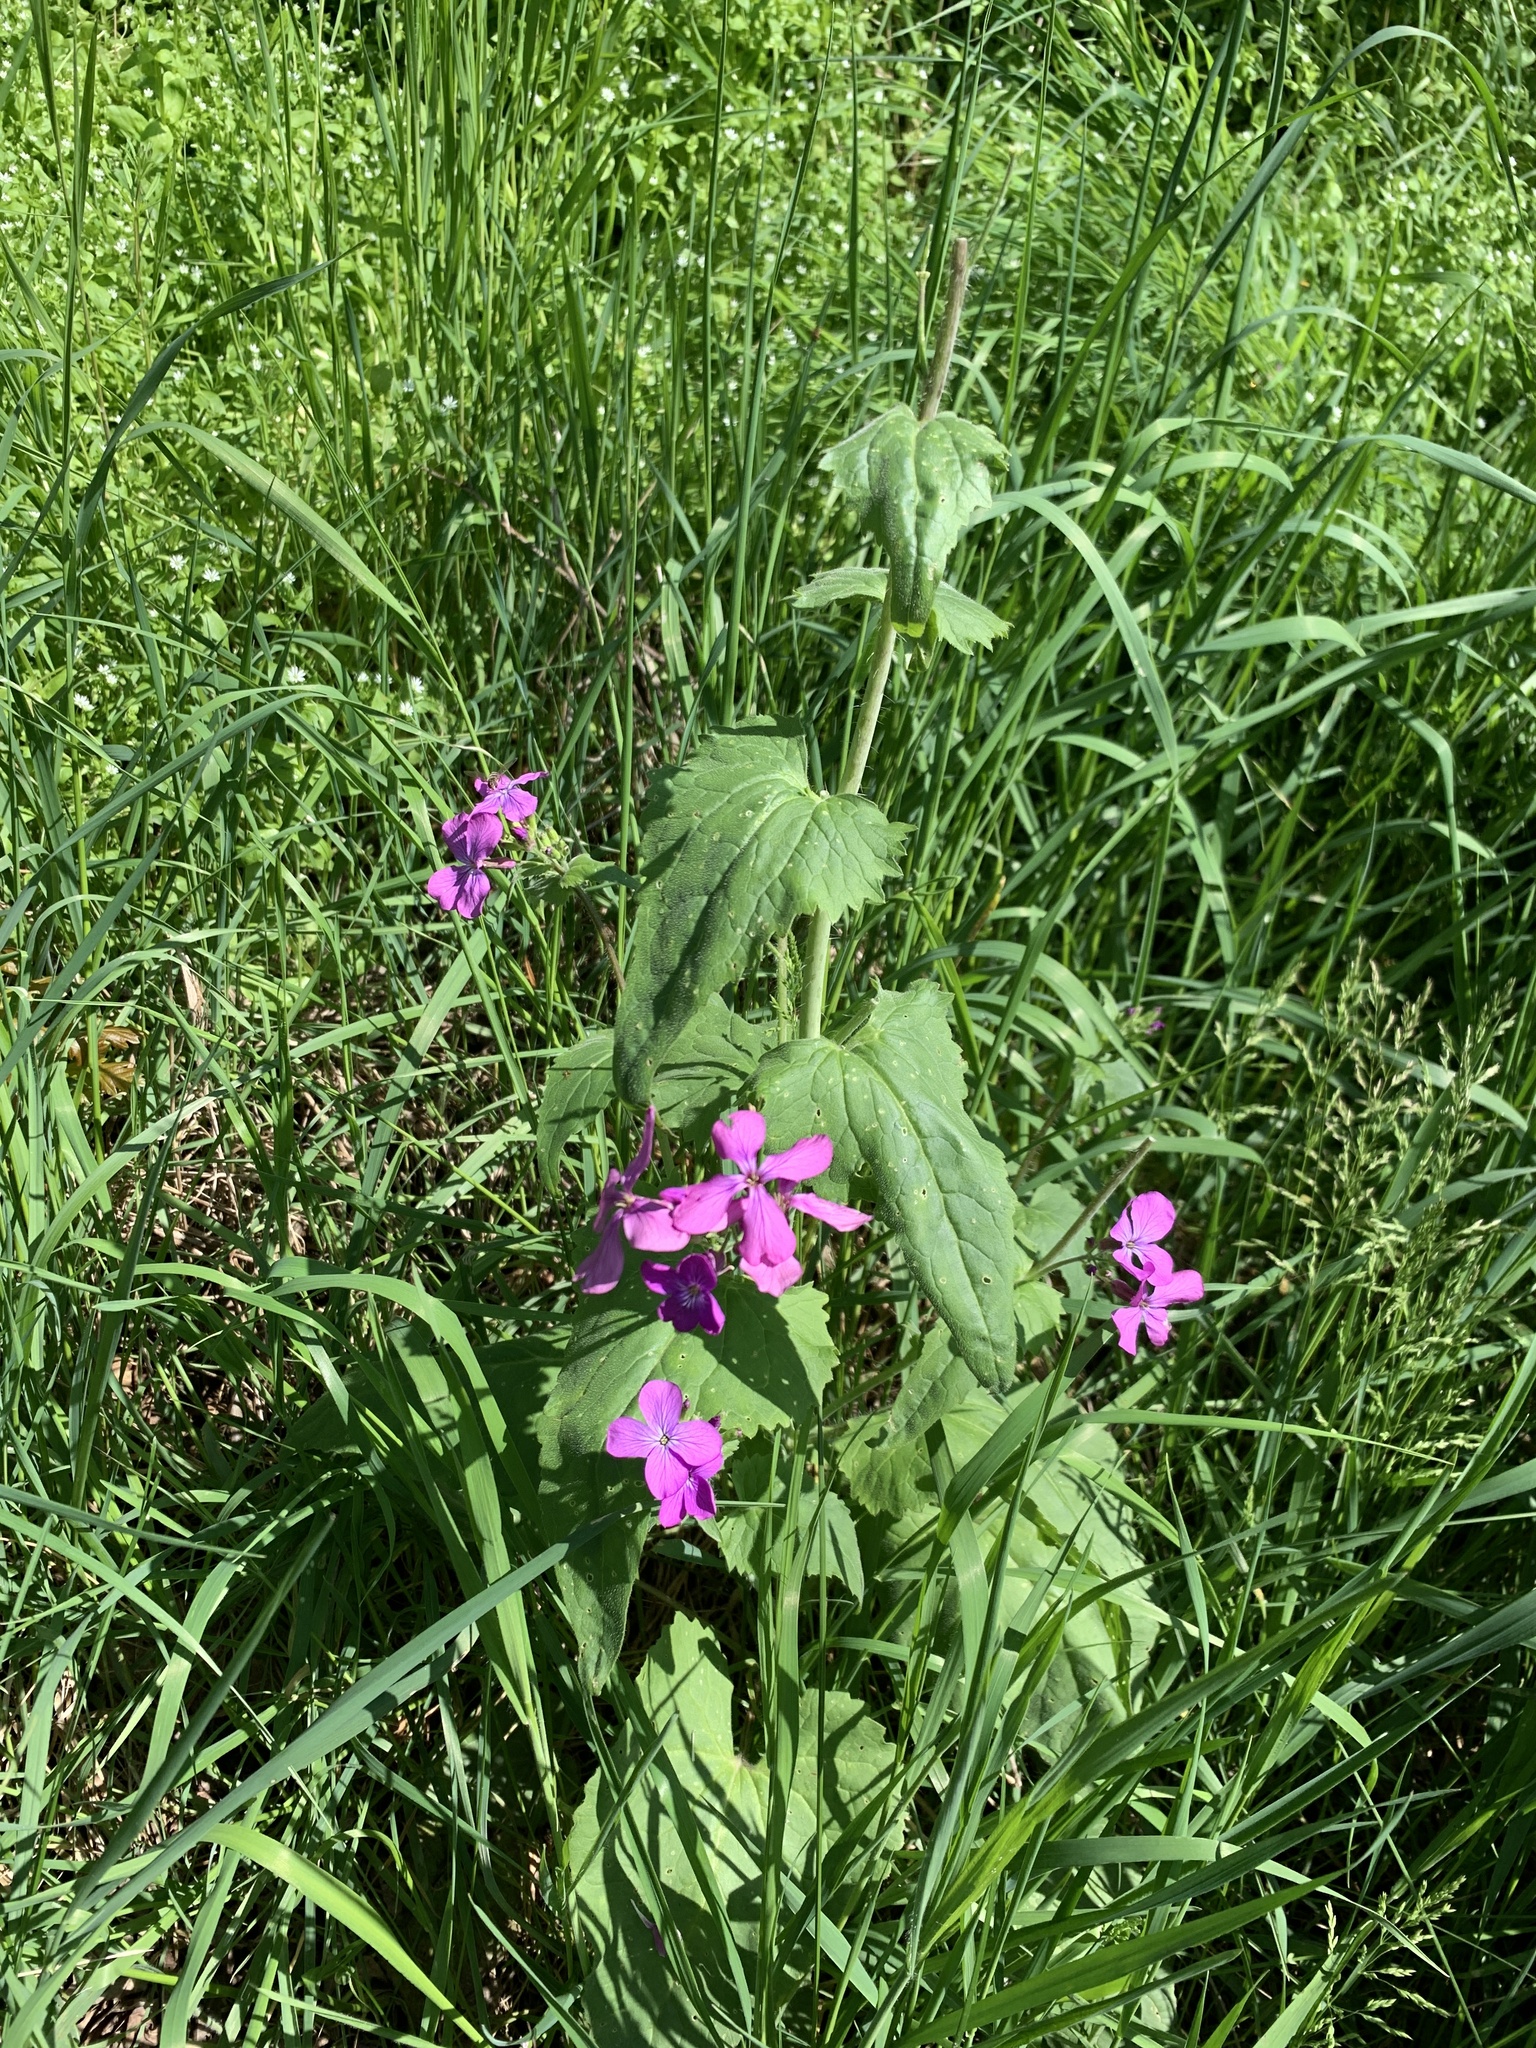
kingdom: Plantae
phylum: Tracheophyta
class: Magnoliopsida
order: Brassicales
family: Brassicaceae
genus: Lunaria
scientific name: Lunaria annua
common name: Honesty
